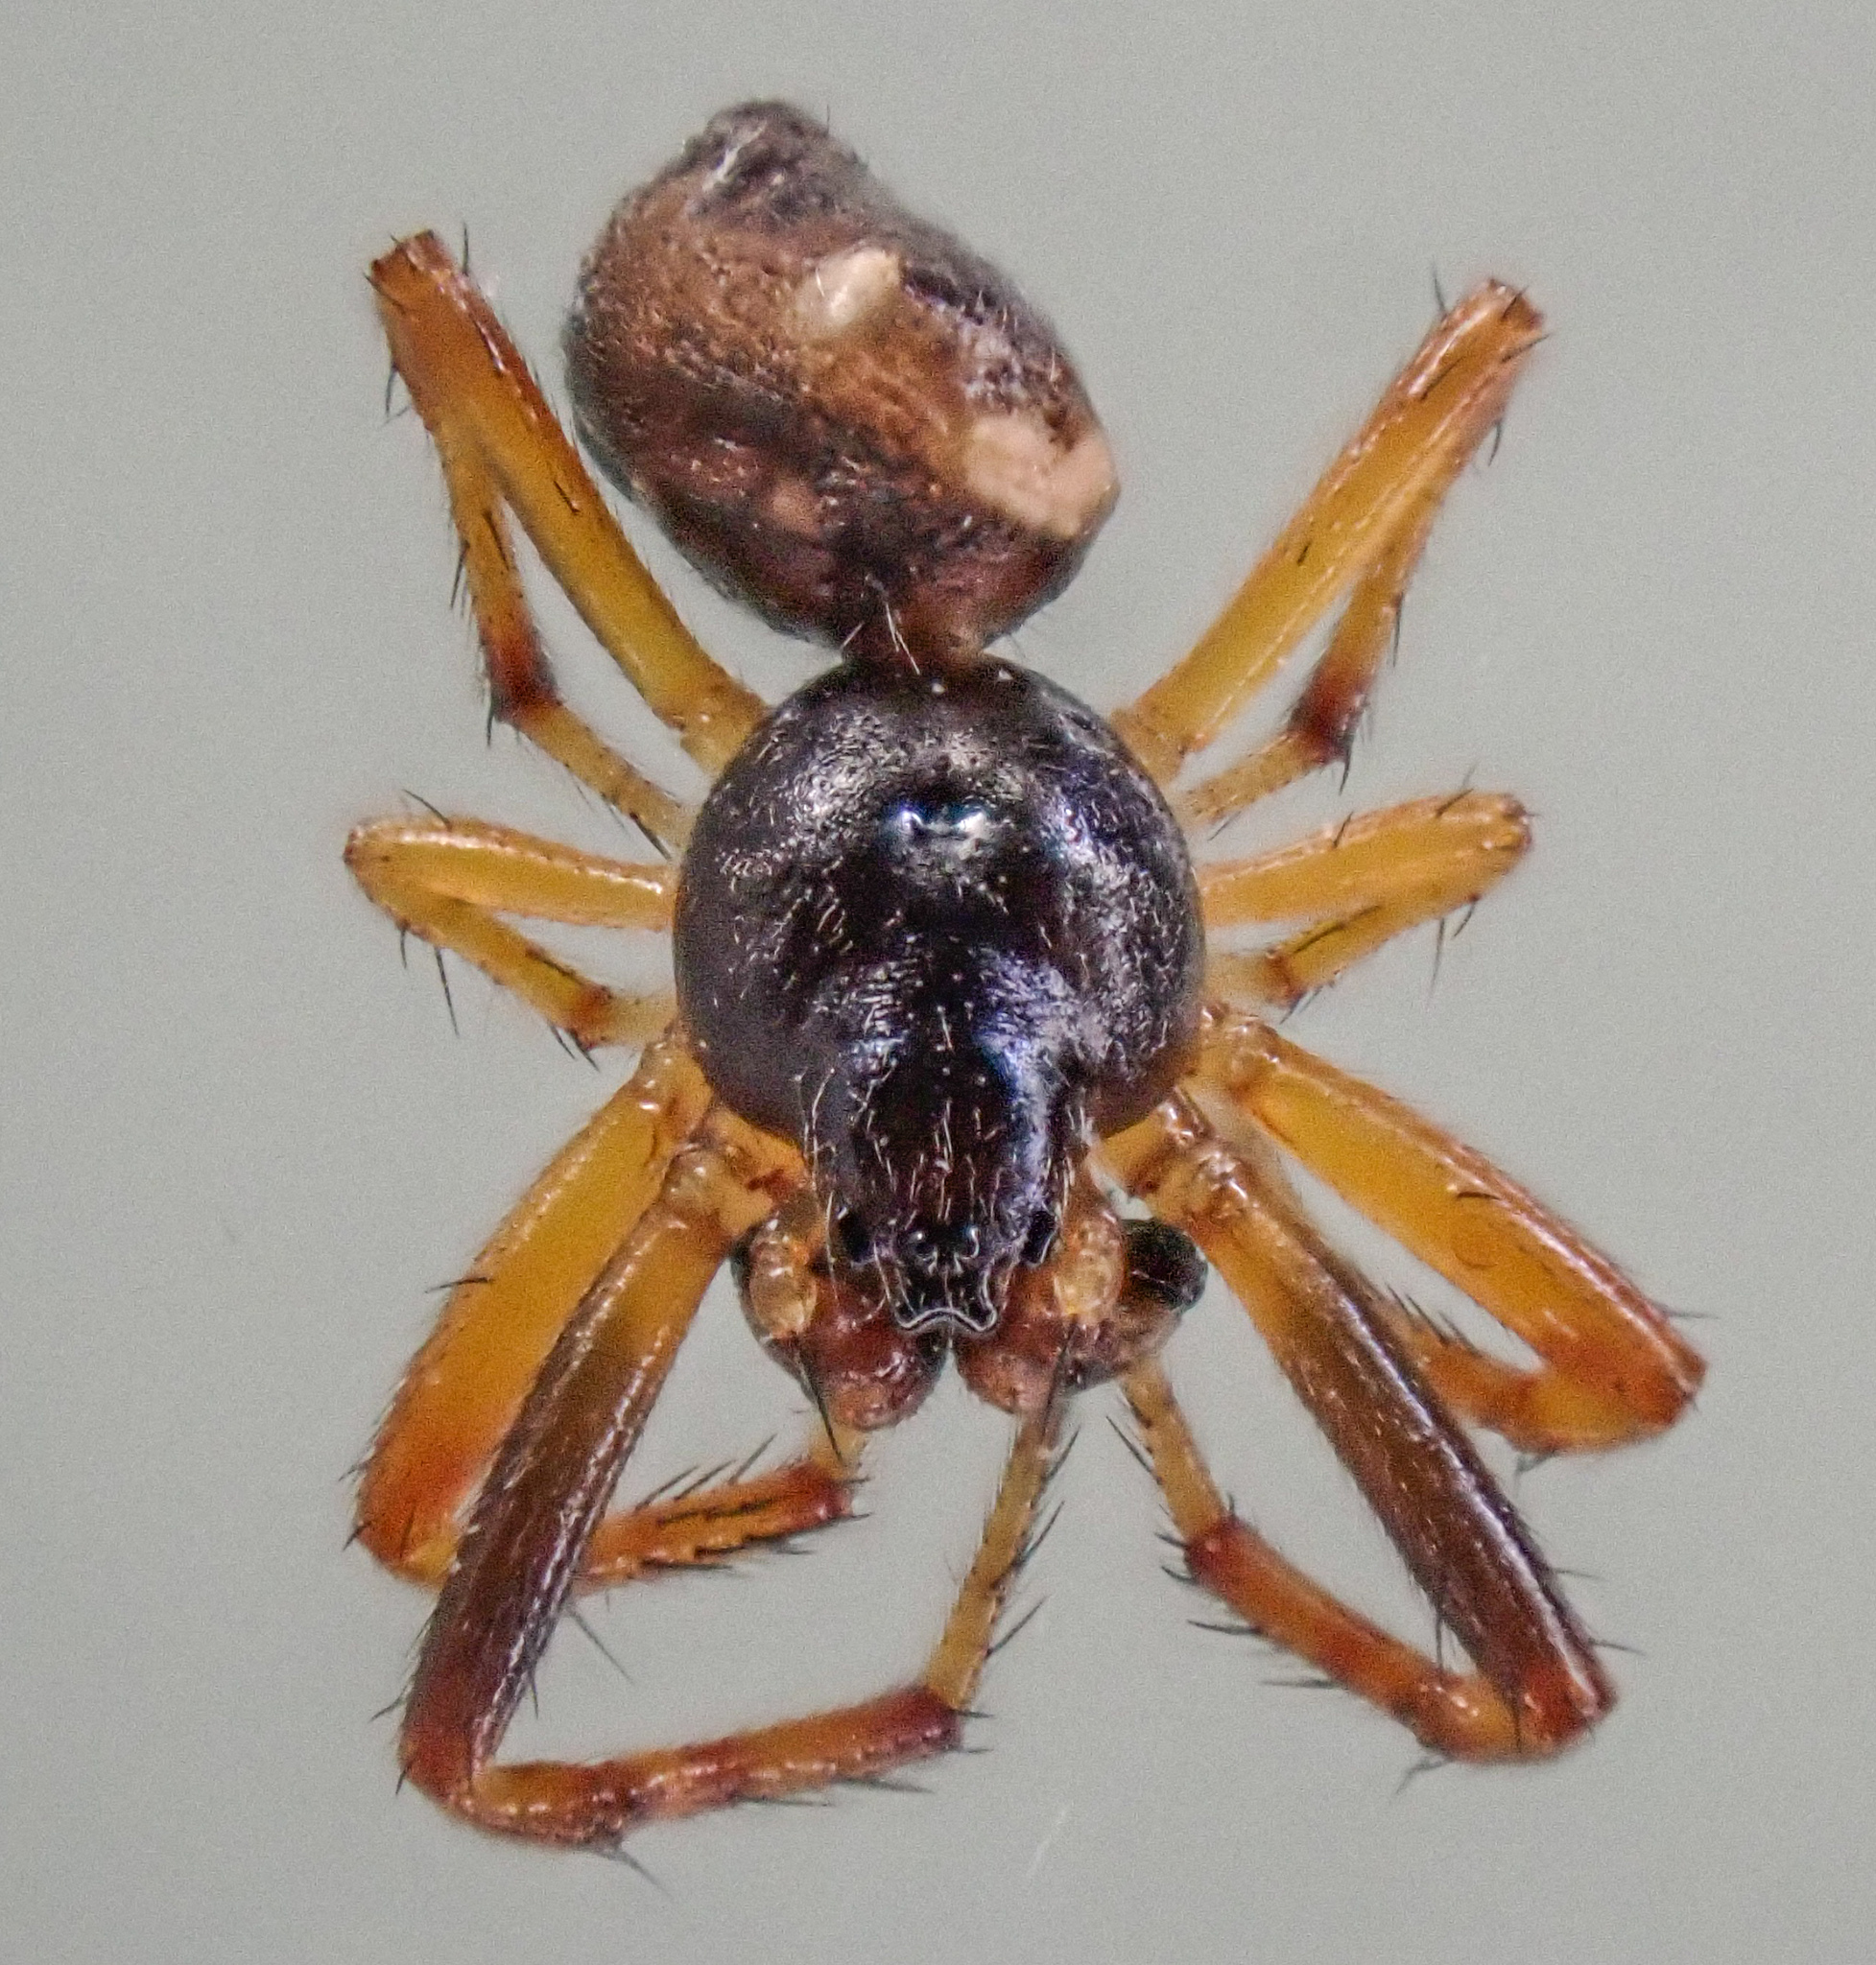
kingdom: Animalia
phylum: Arthropoda
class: Arachnida
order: Araneae
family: Araneidae
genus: Cyclosa
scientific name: Cyclosa turbinata
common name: Orb weavers
